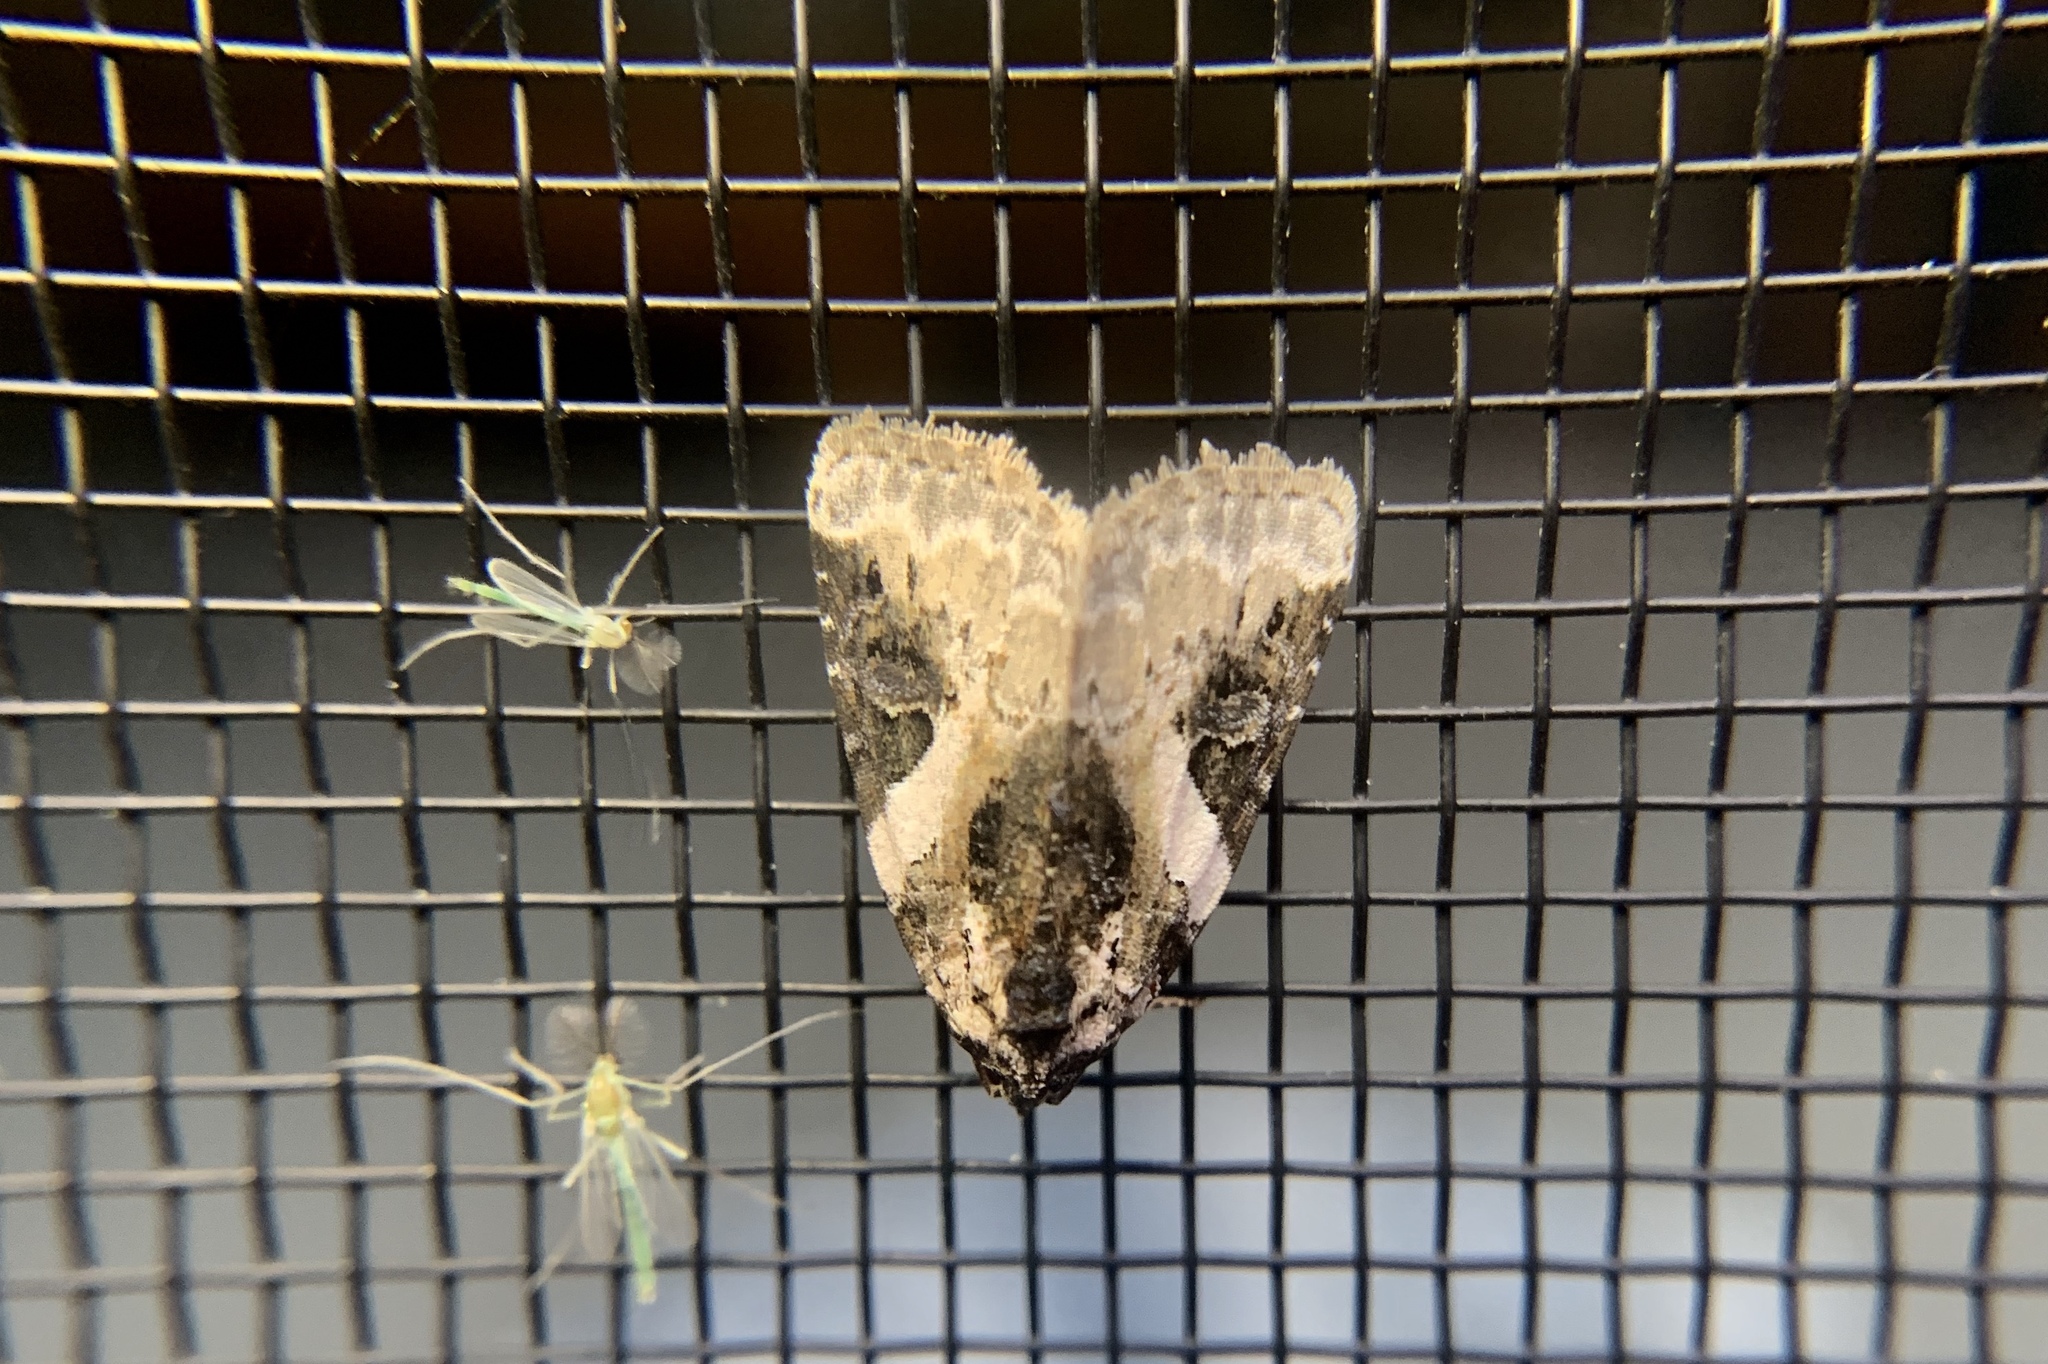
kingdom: Animalia
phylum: Arthropoda
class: Insecta
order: Lepidoptera
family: Noctuidae
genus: Pseudeustrotia
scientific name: Pseudeustrotia carneola
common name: Pink-barred lithacodia moth
